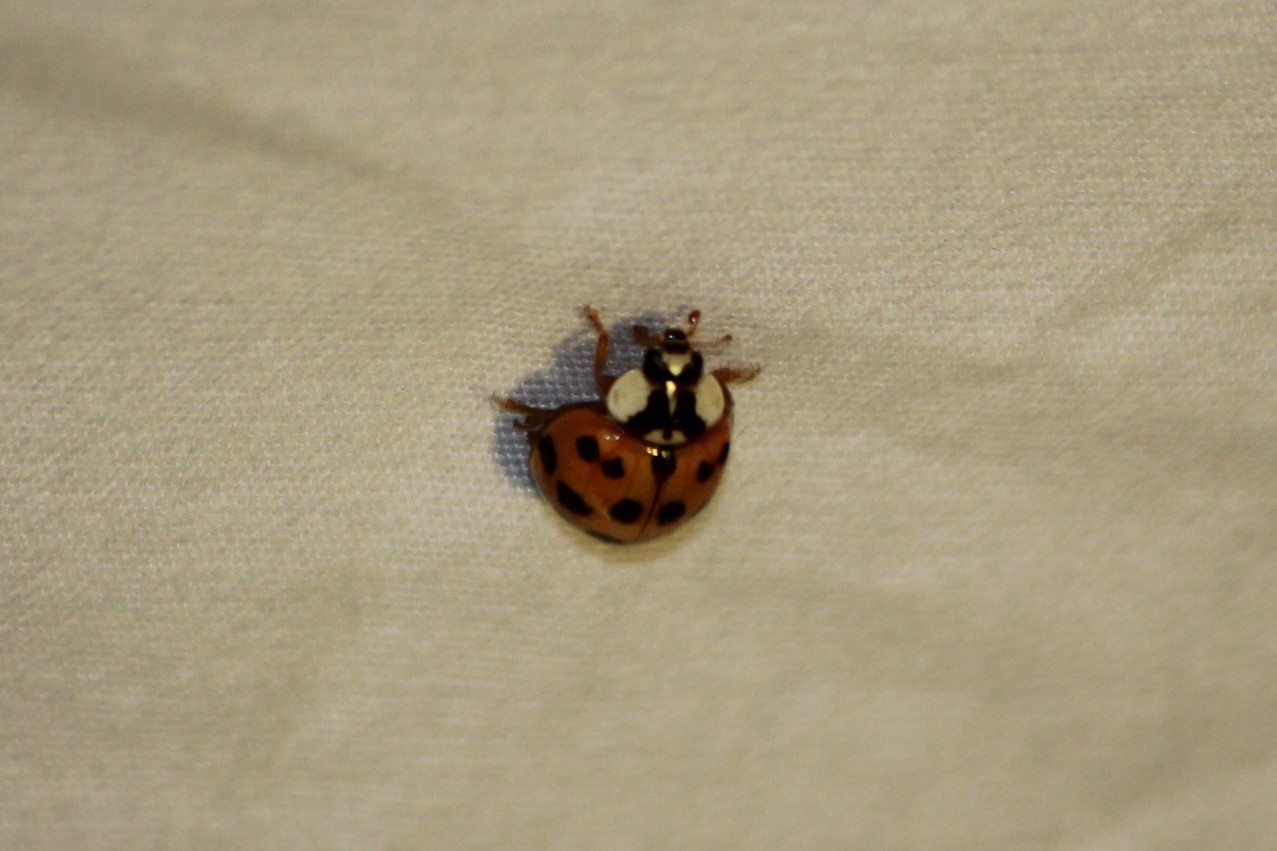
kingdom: Animalia
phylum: Arthropoda
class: Insecta
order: Coleoptera
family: Coccinellidae
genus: Harmonia
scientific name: Harmonia axyridis
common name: Harlequin ladybird
